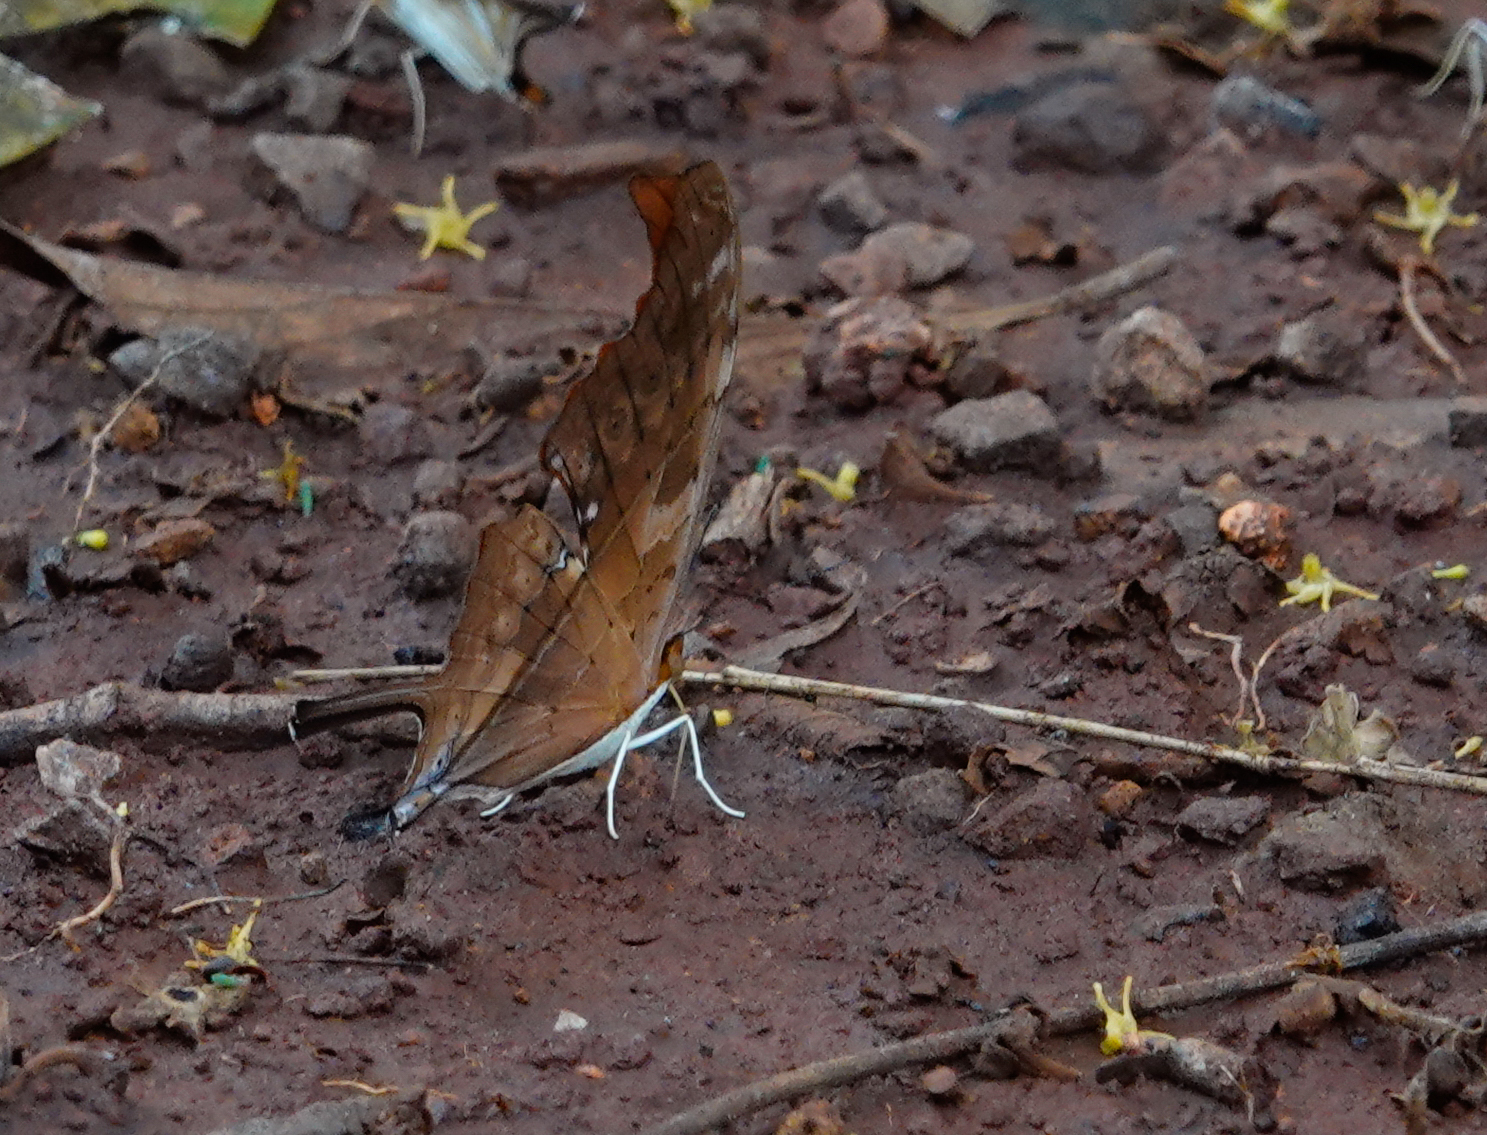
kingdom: Animalia
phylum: Arthropoda
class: Insecta
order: Lepidoptera
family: Nymphalidae
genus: Marpesia
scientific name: Marpesia petreus
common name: Red dagger wing
